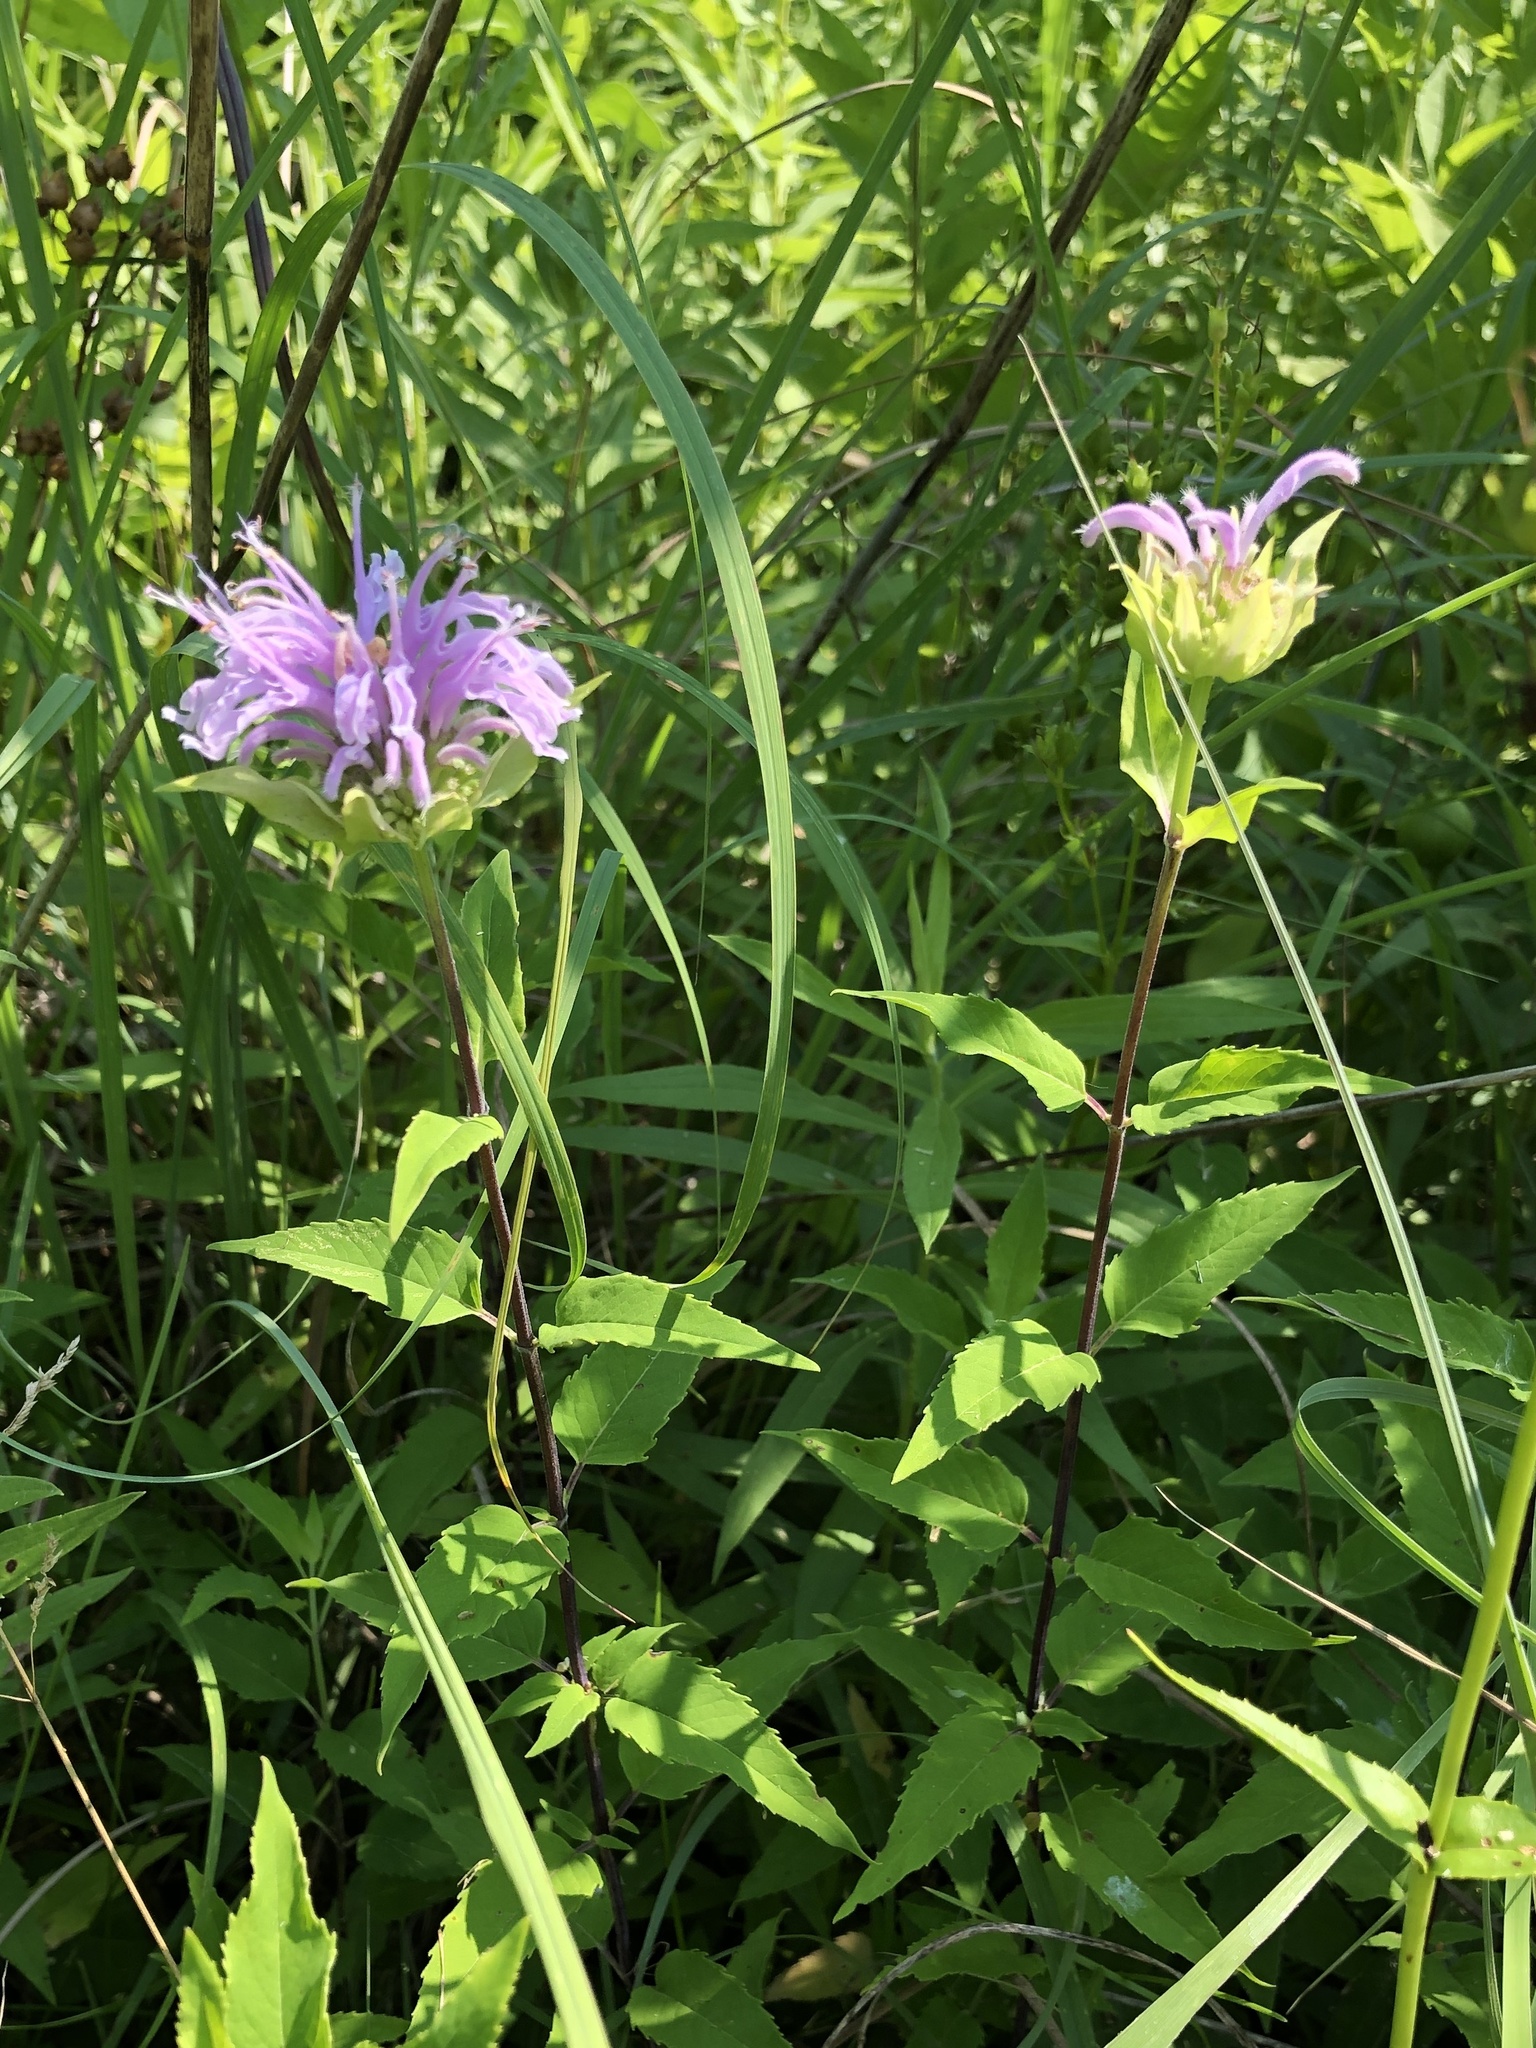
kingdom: Plantae
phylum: Tracheophyta
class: Magnoliopsida
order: Lamiales
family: Lamiaceae
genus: Monarda
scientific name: Monarda fistulosa
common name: Purple beebalm
